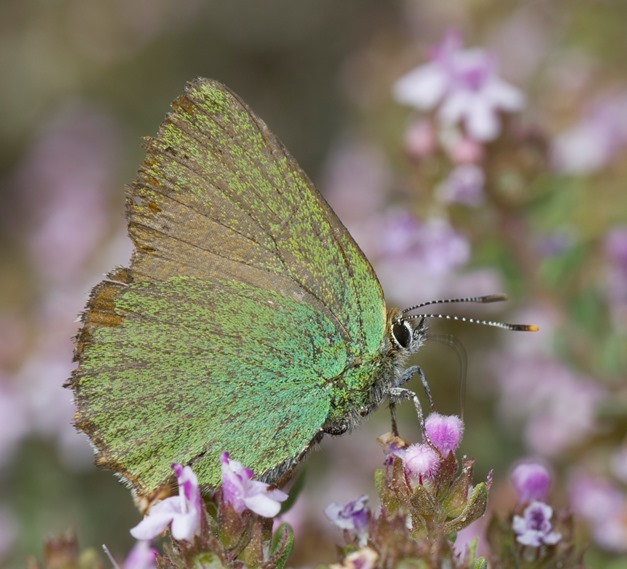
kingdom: Animalia
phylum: Arthropoda
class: Insecta
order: Lepidoptera
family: Lycaenidae
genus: Callophrys
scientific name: Callophrys rubi
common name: Green hairstreak
